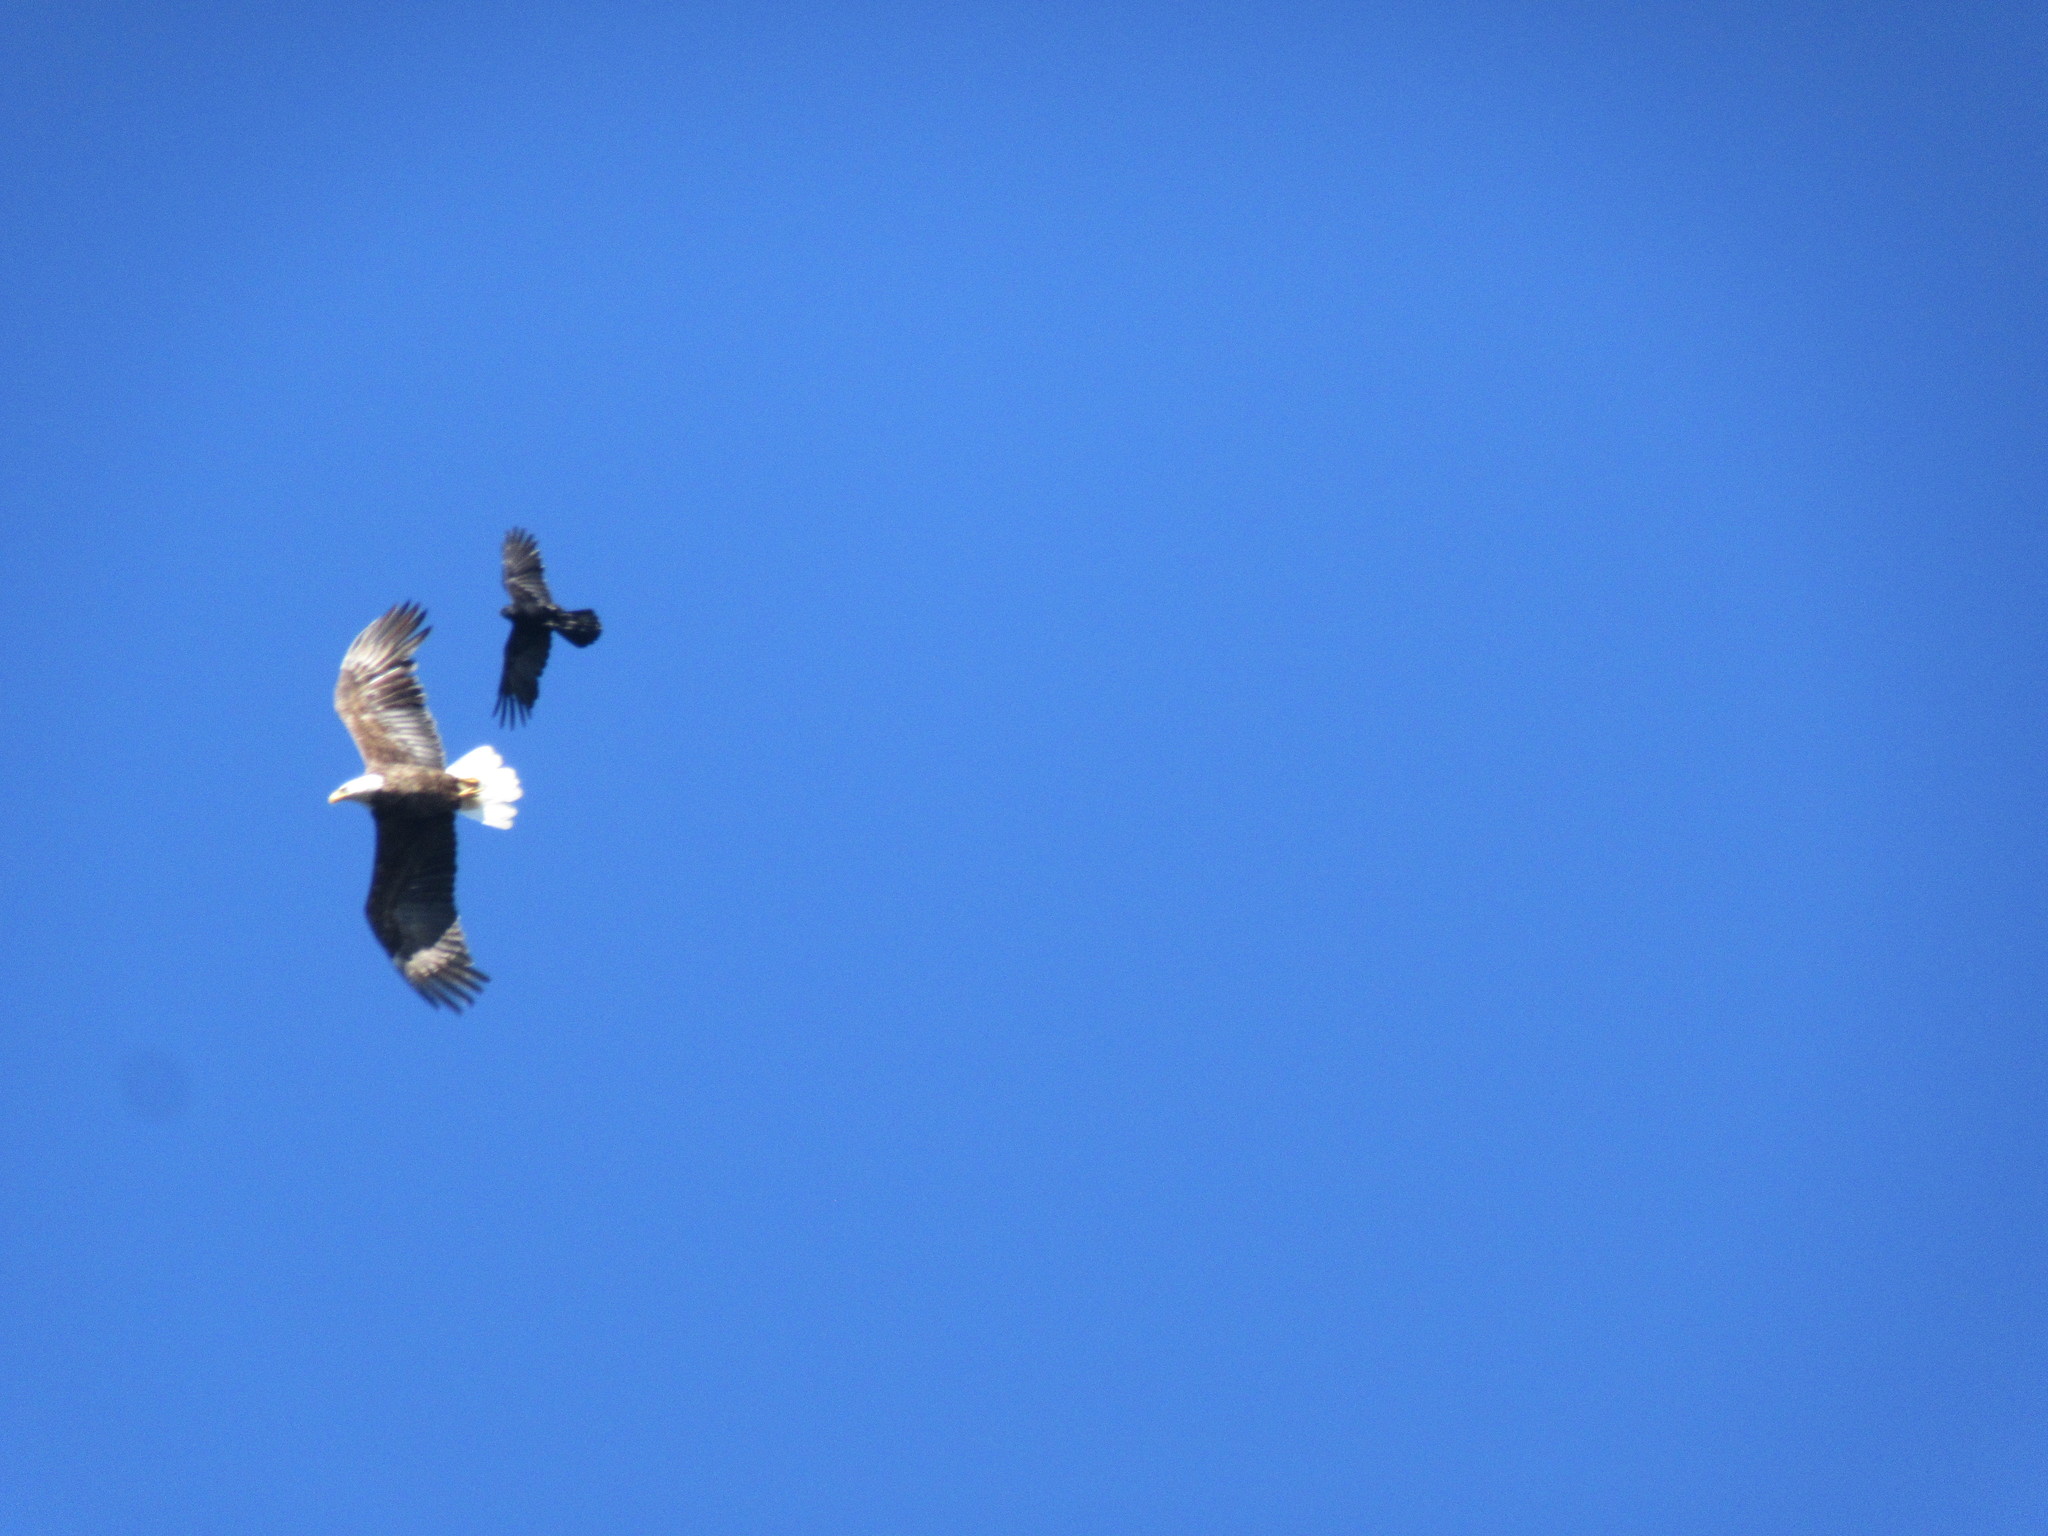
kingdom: Animalia
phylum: Chordata
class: Aves
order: Accipitriformes
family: Accipitridae
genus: Haliaeetus
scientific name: Haliaeetus leucocephalus
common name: Bald eagle
